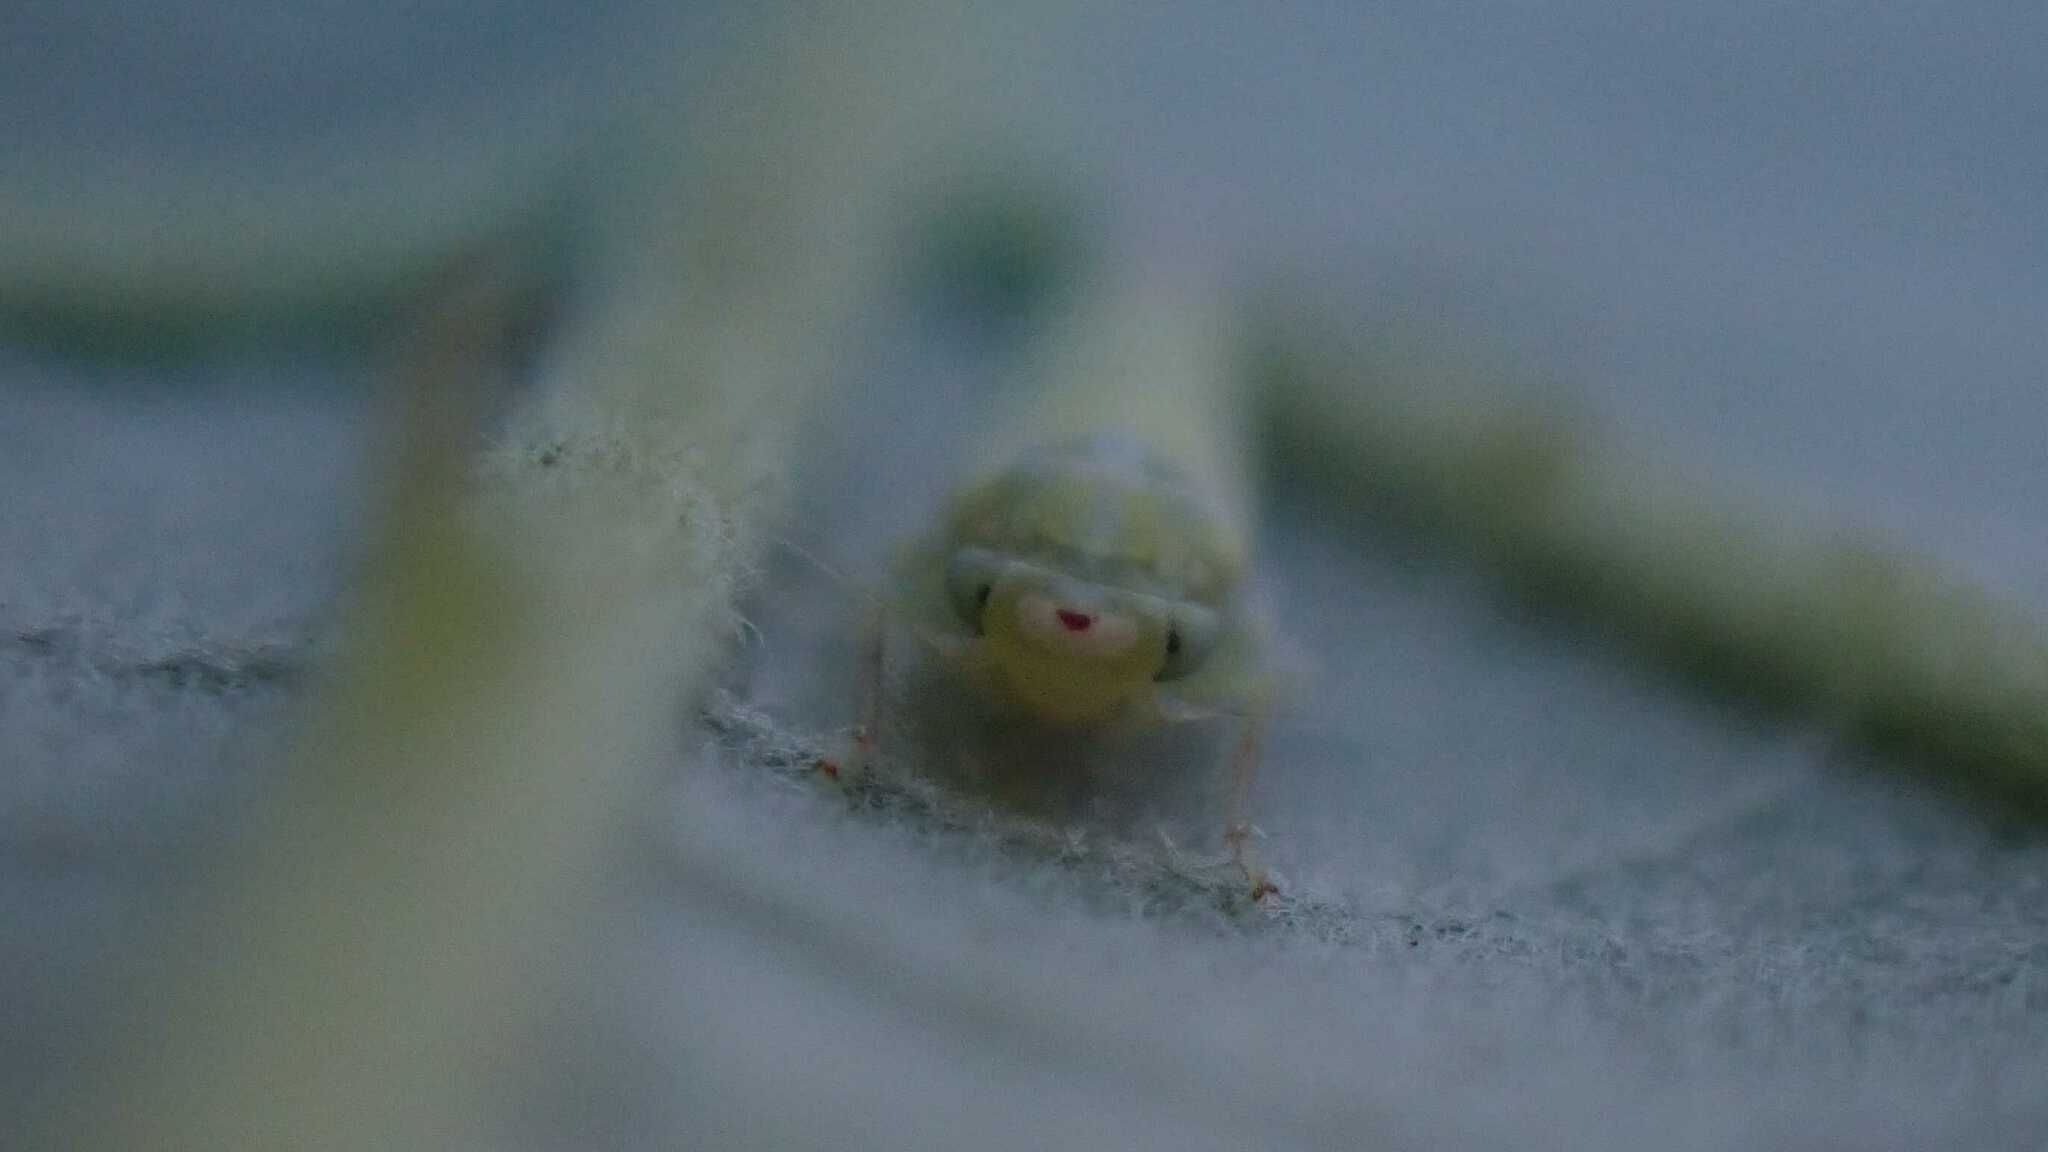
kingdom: Animalia
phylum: Arthropoda
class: Insecta
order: Hemiptera
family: Cicadellidae
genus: Zygina
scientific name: Zygina nivea
